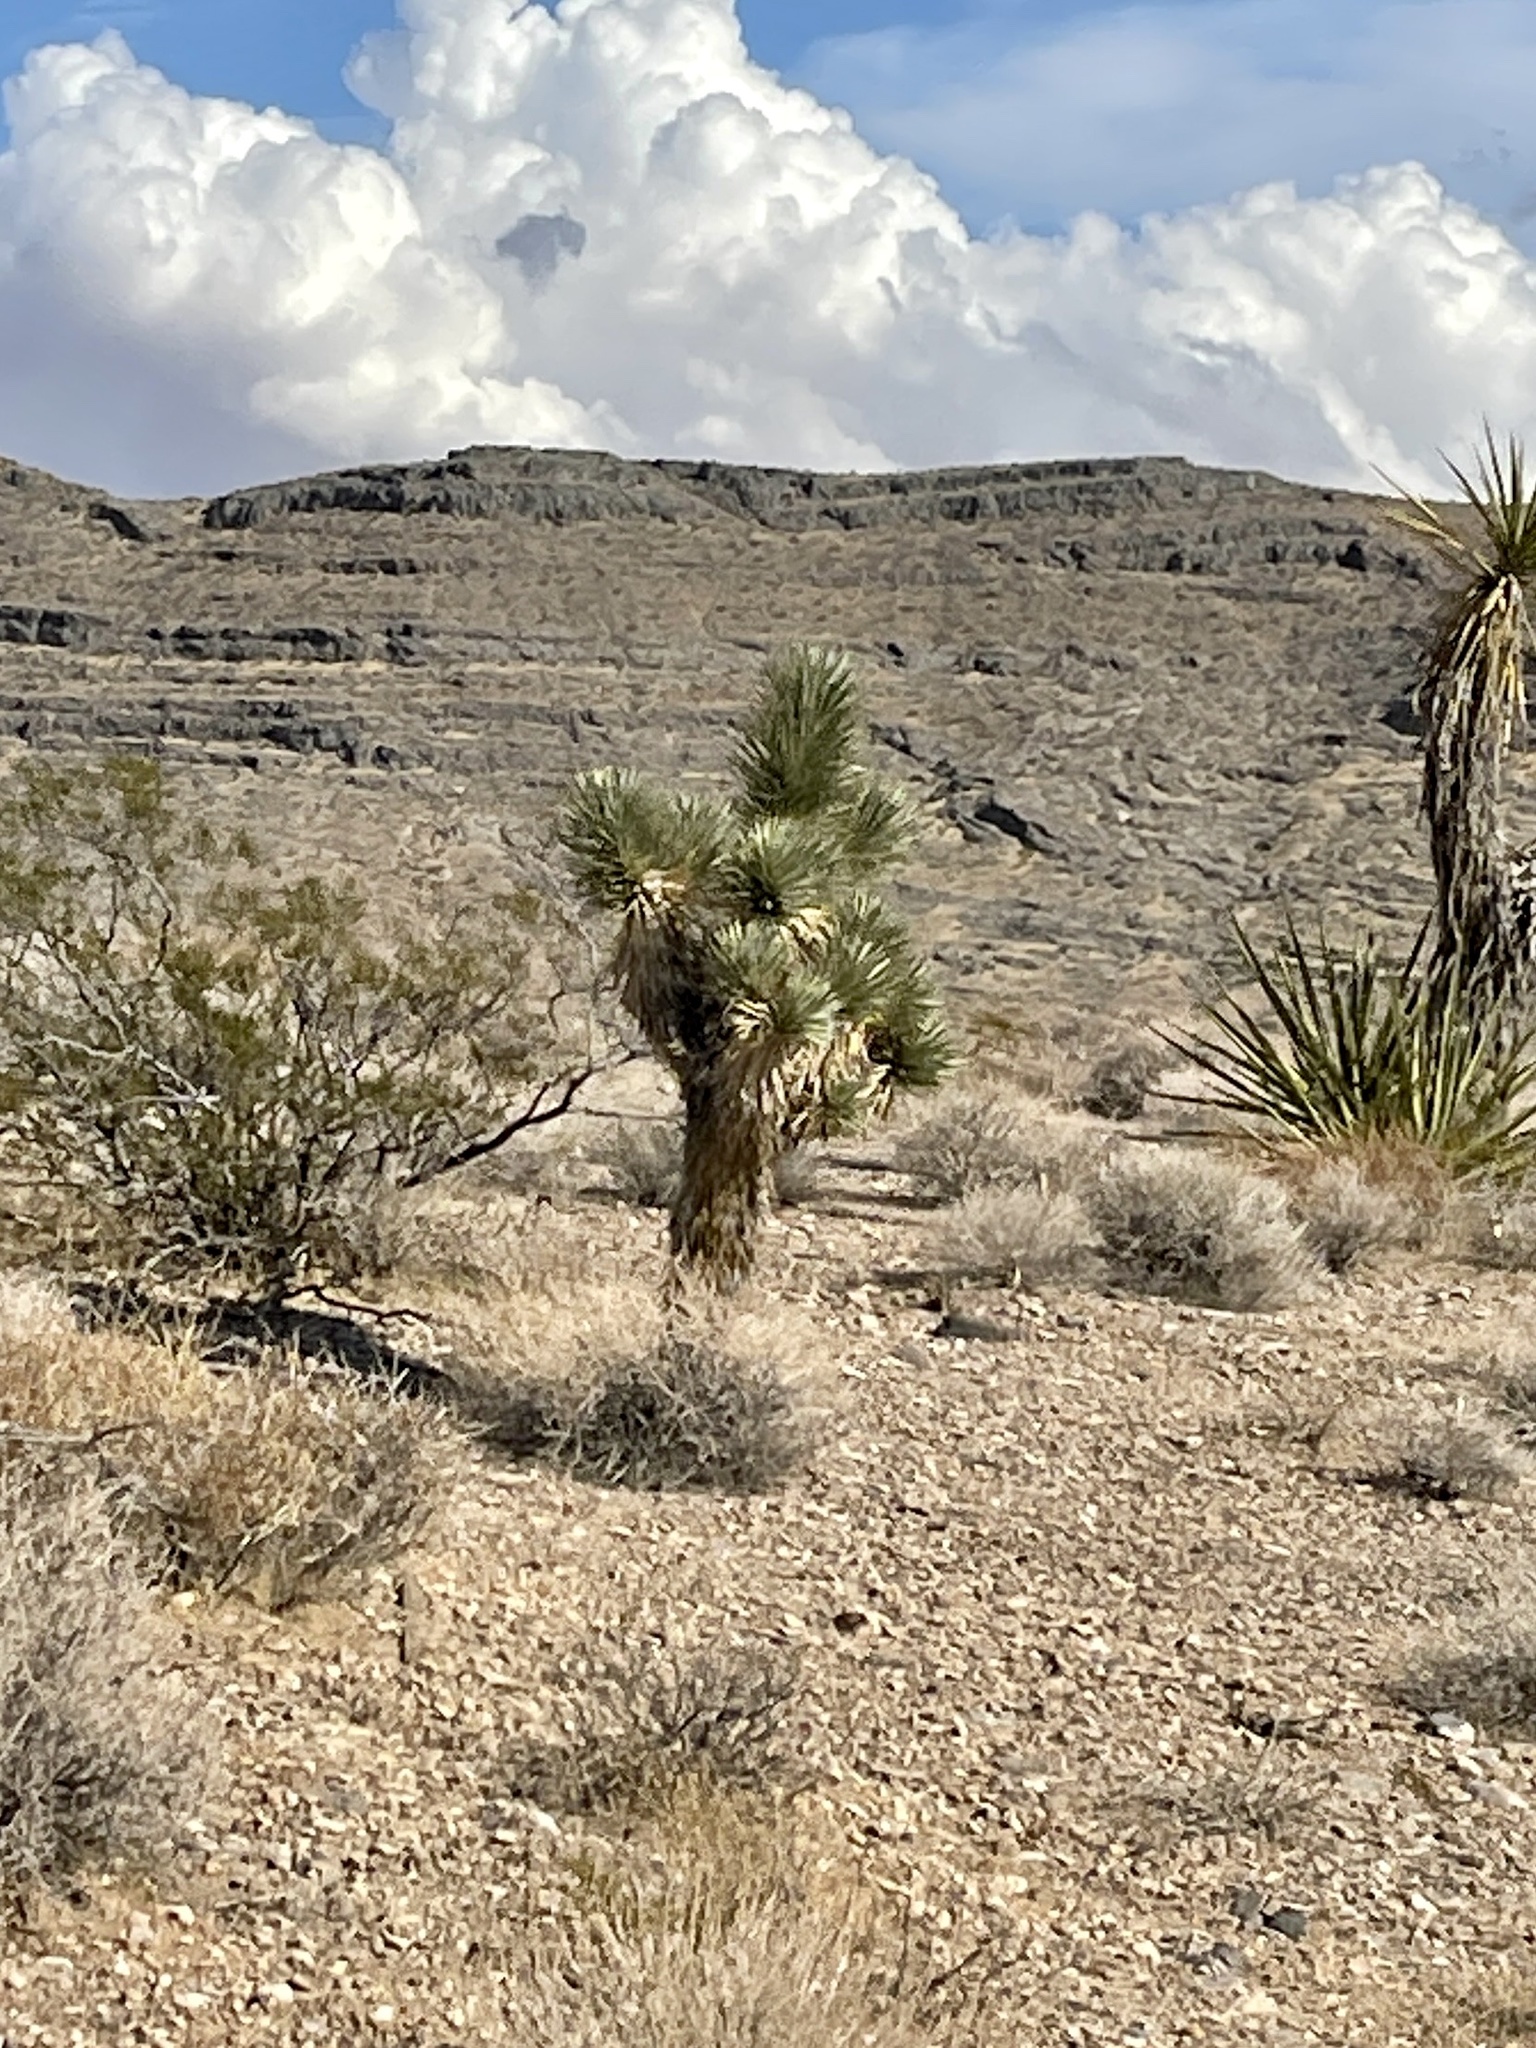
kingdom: Plantae
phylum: Tracheophyta
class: Liliopsida
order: Asparagales
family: Asparagaceae
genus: Yucca
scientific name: Yucca brevifolia
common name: Joshua tree
